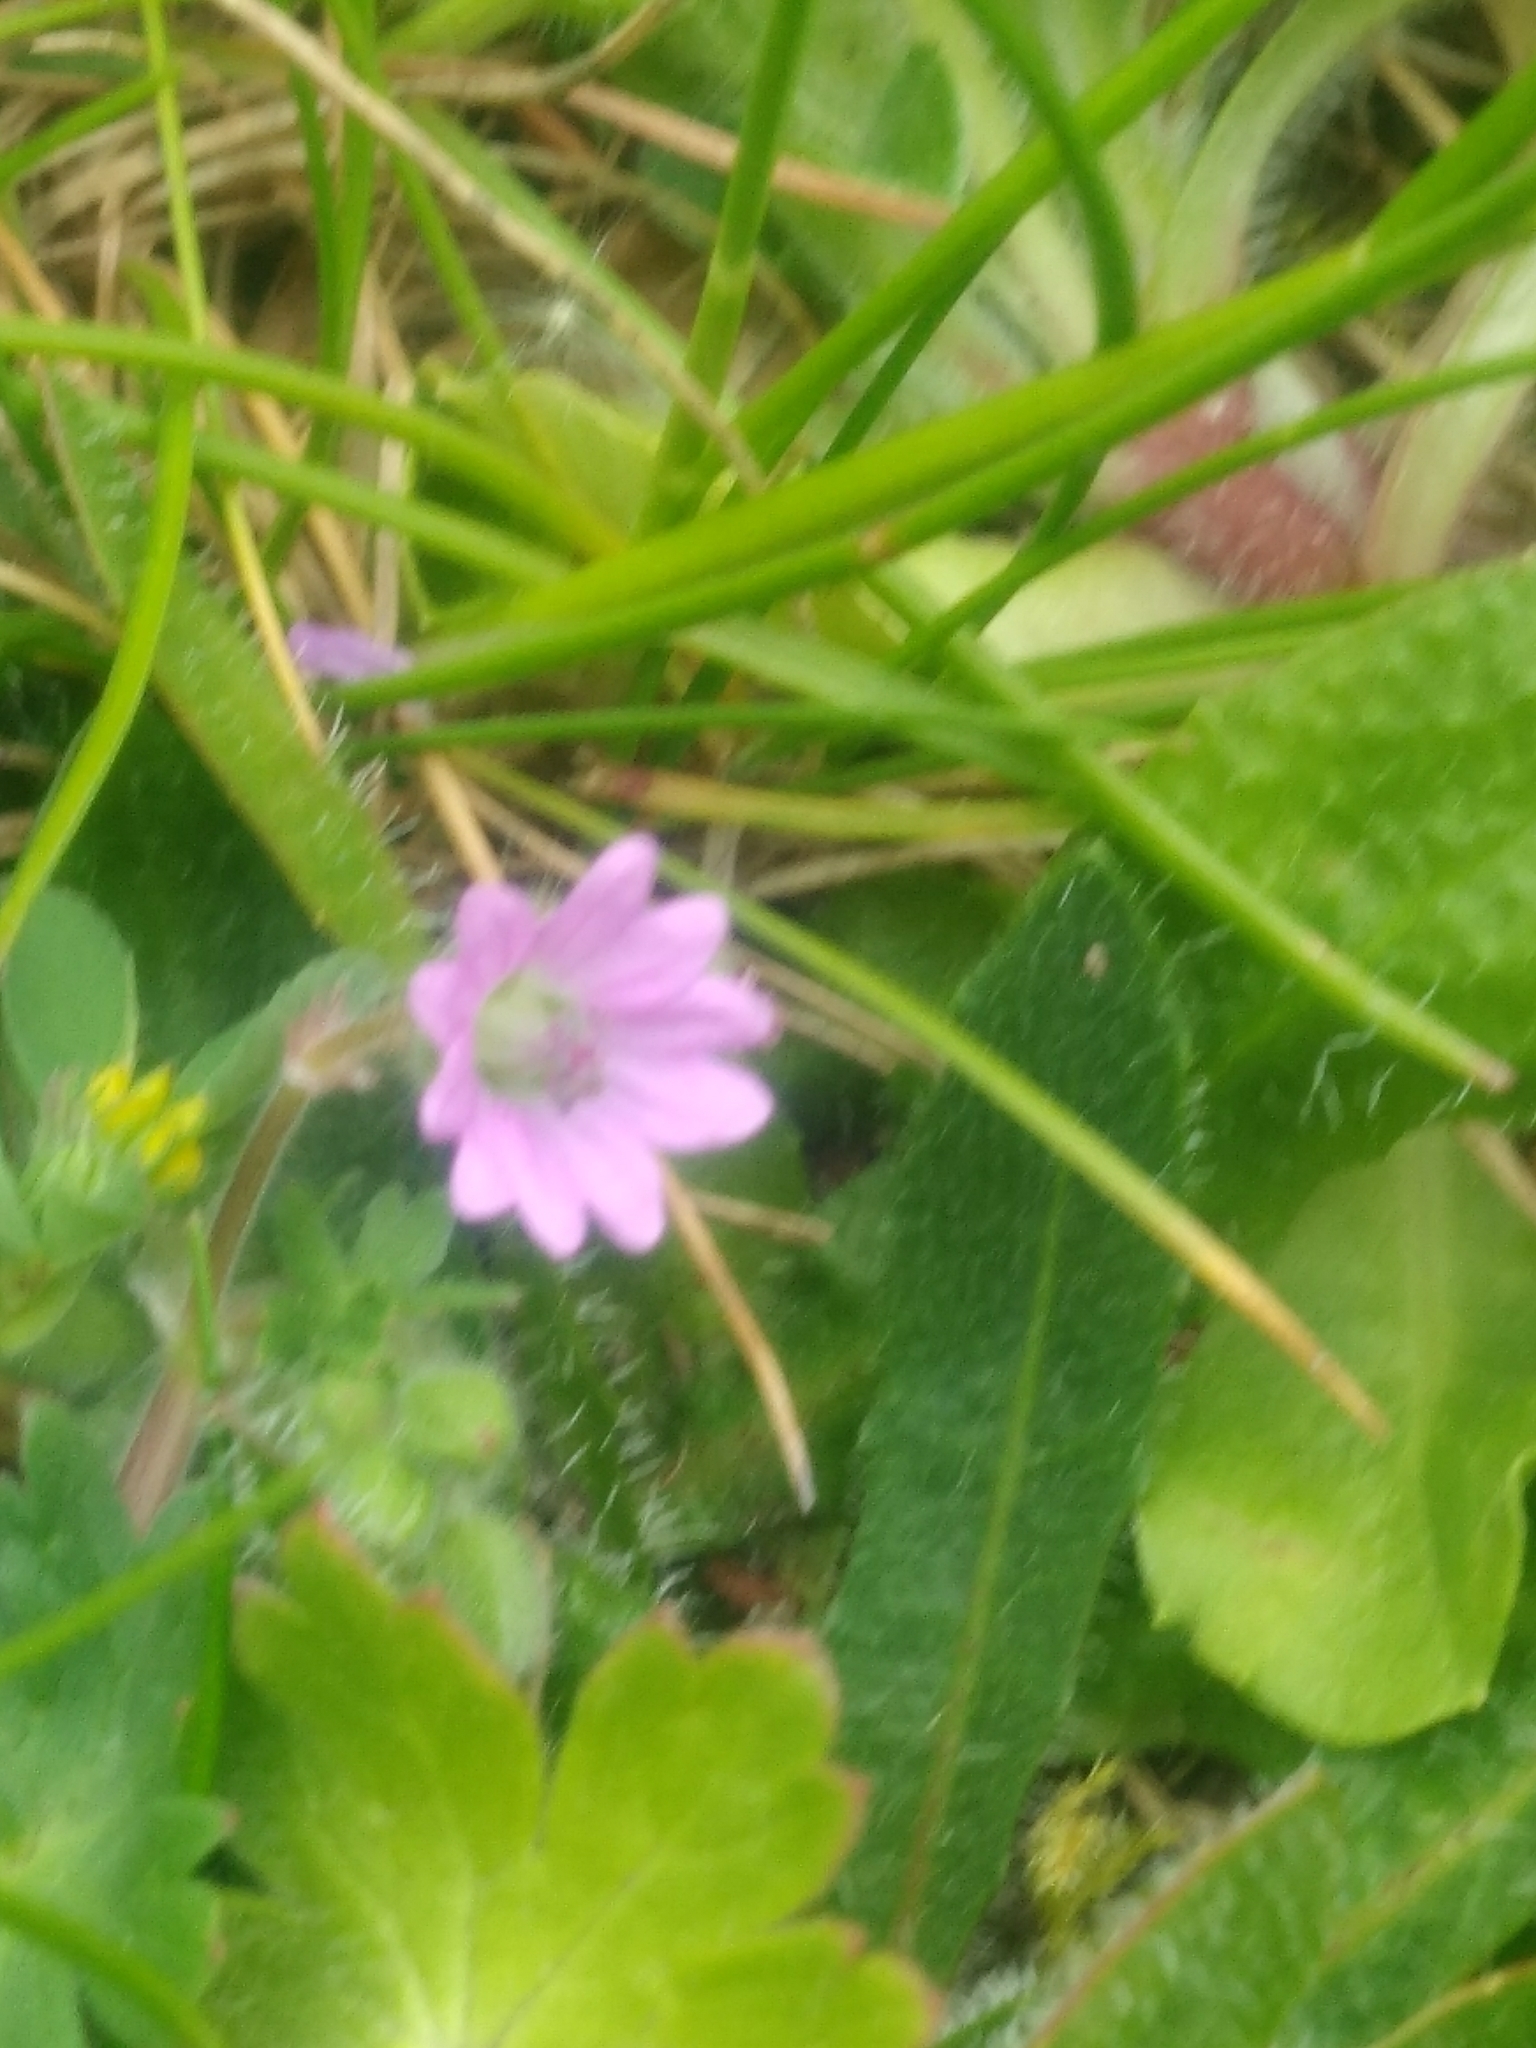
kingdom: Plantae
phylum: Tracheophyta
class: Magnoliopsida
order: Geraniales
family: Geraniaceae
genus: Geranium
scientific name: Geranium molle
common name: Dove's-foot crane's-bill
